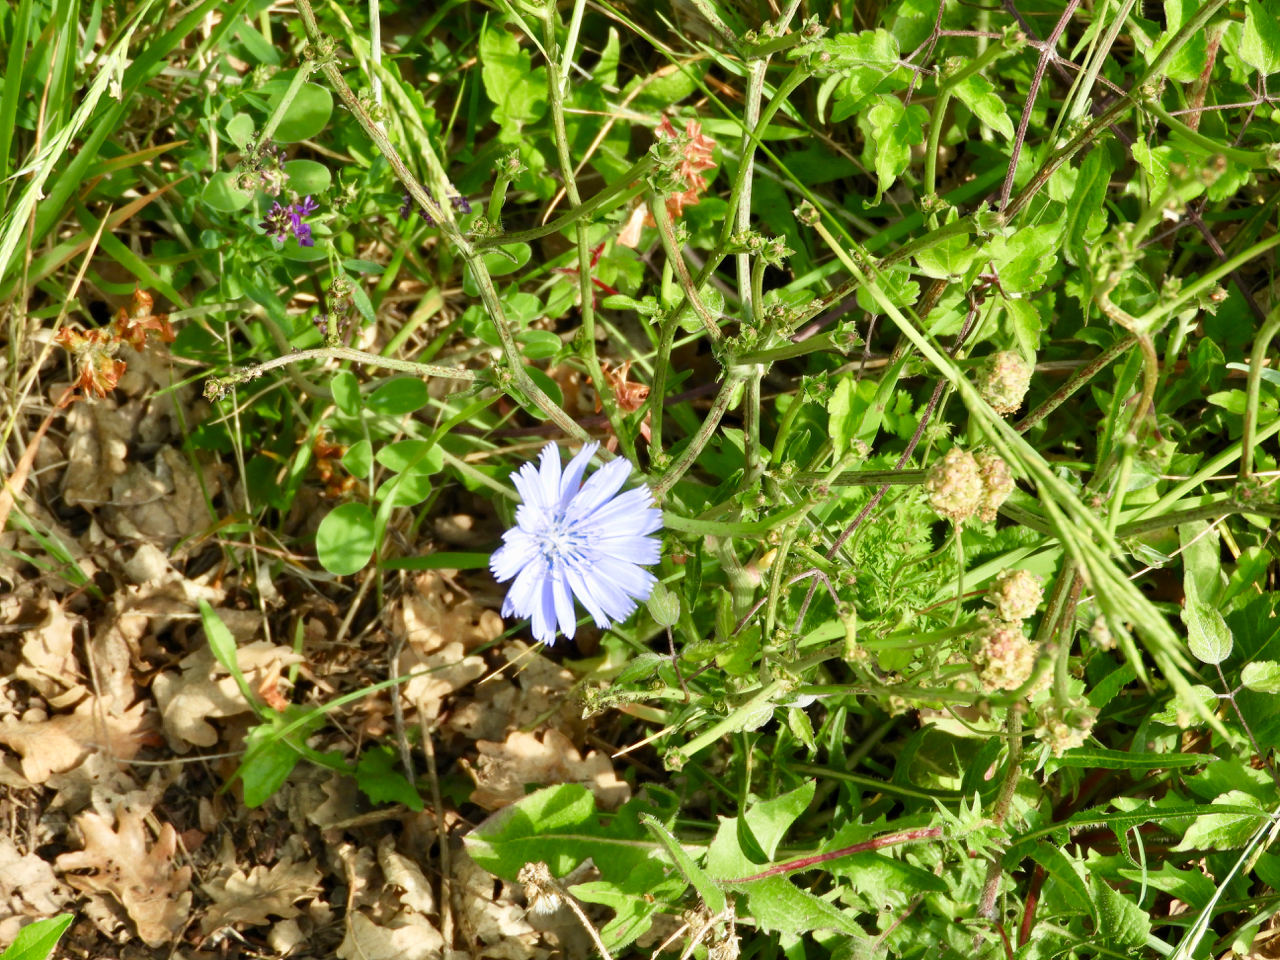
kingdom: Plantae
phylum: Tracheophyta
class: Magnoliopsida
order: Asterales
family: Asteraceae
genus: Cichorium
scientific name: Cichorium intybus
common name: Chicory
